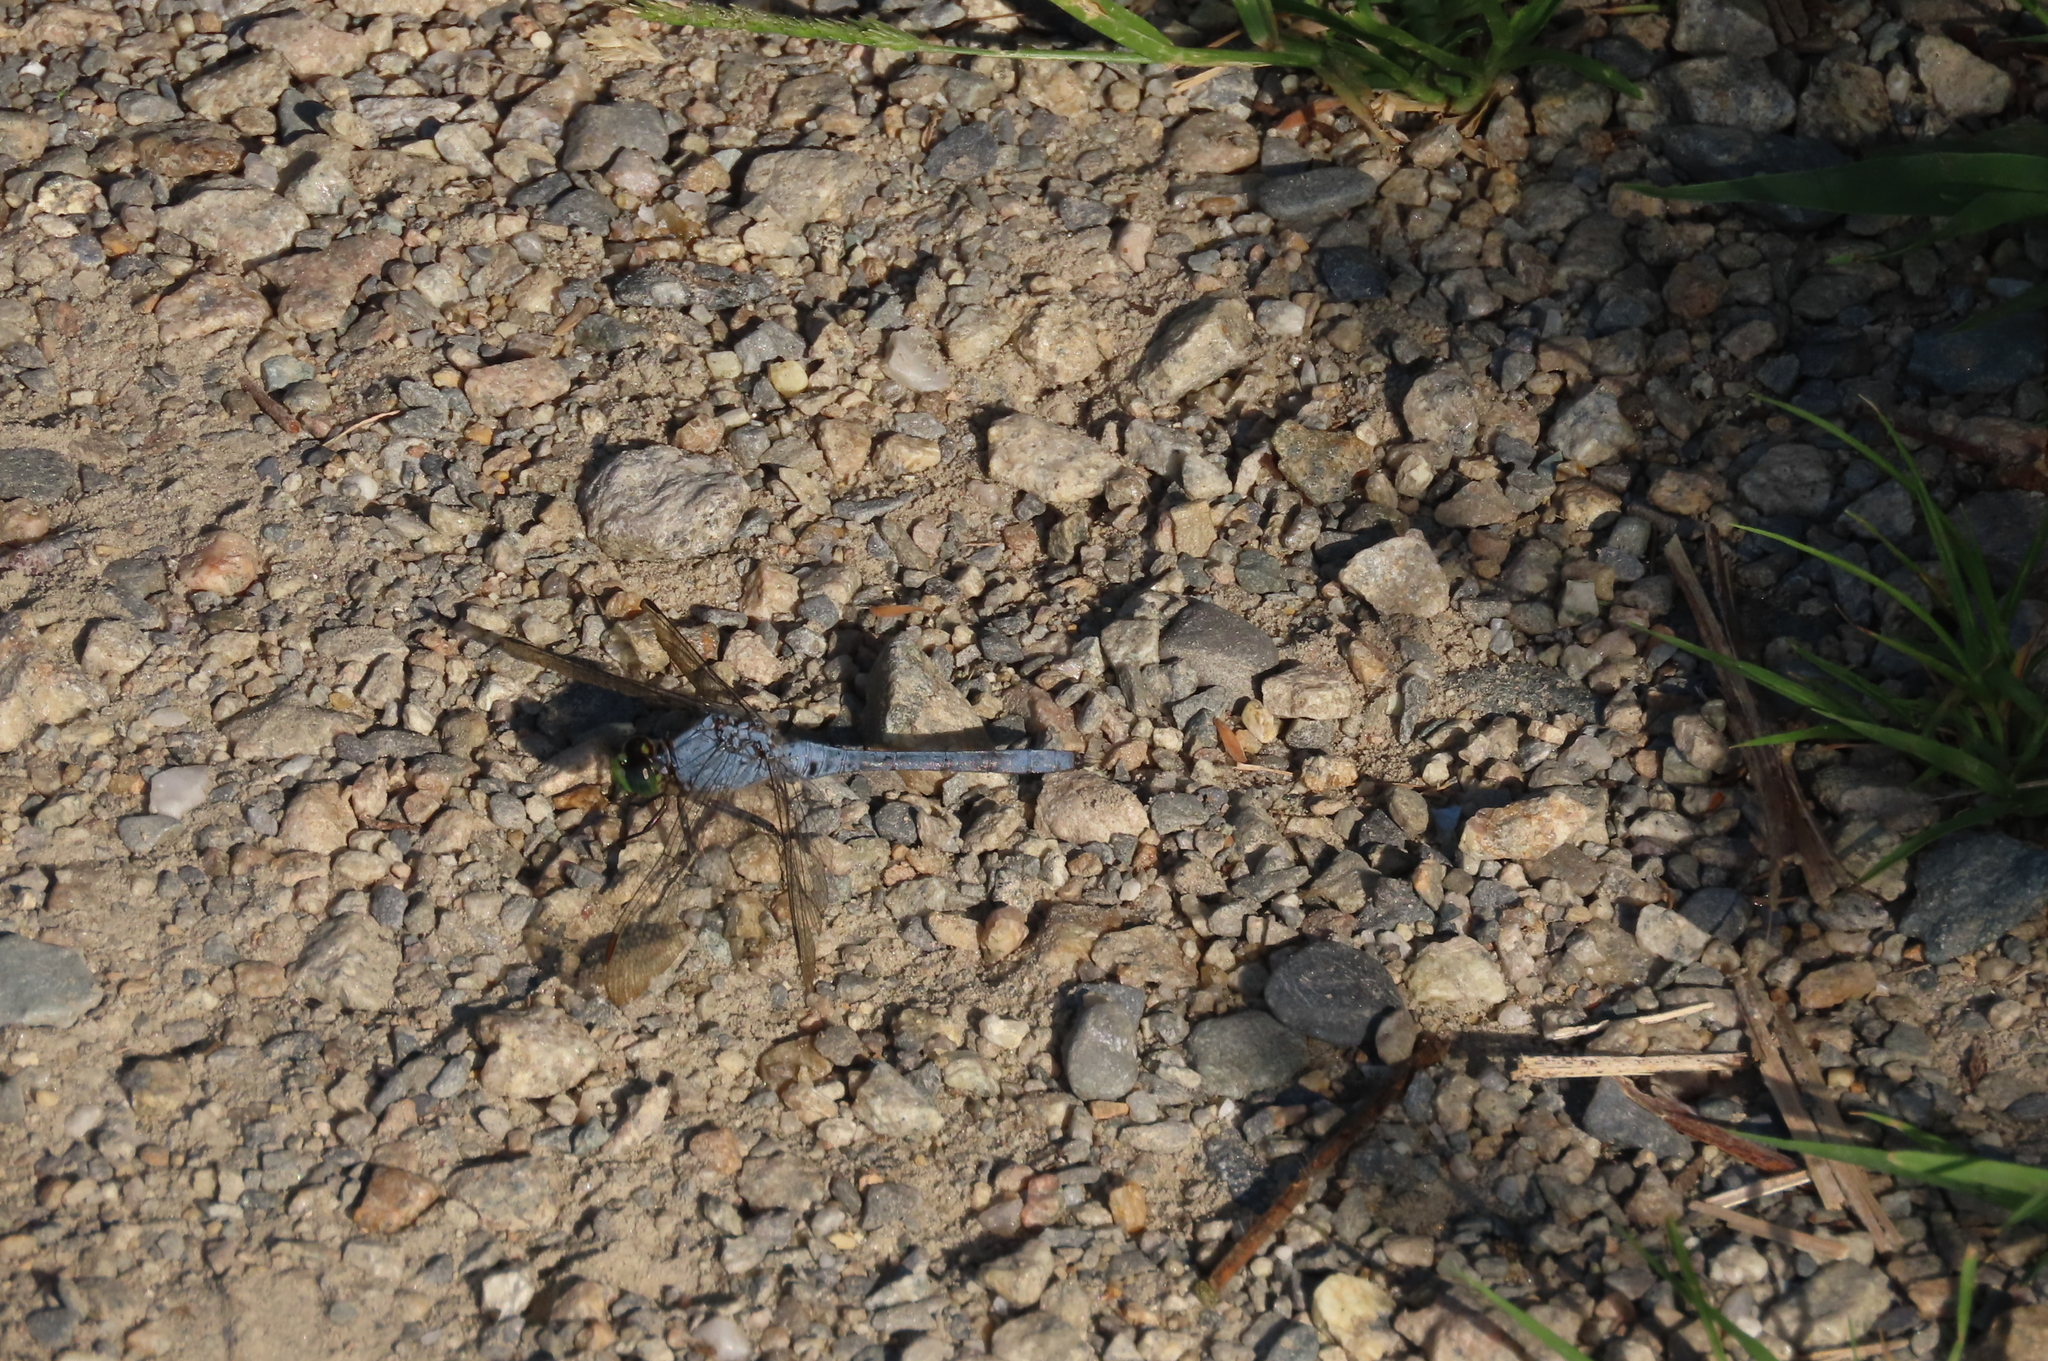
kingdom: Animalia
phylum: Arthropoda
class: Insecta
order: Odonata
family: Libellulidae
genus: Erythemis
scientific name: Erythemis simplicicollis
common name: Eastern pondhawk
